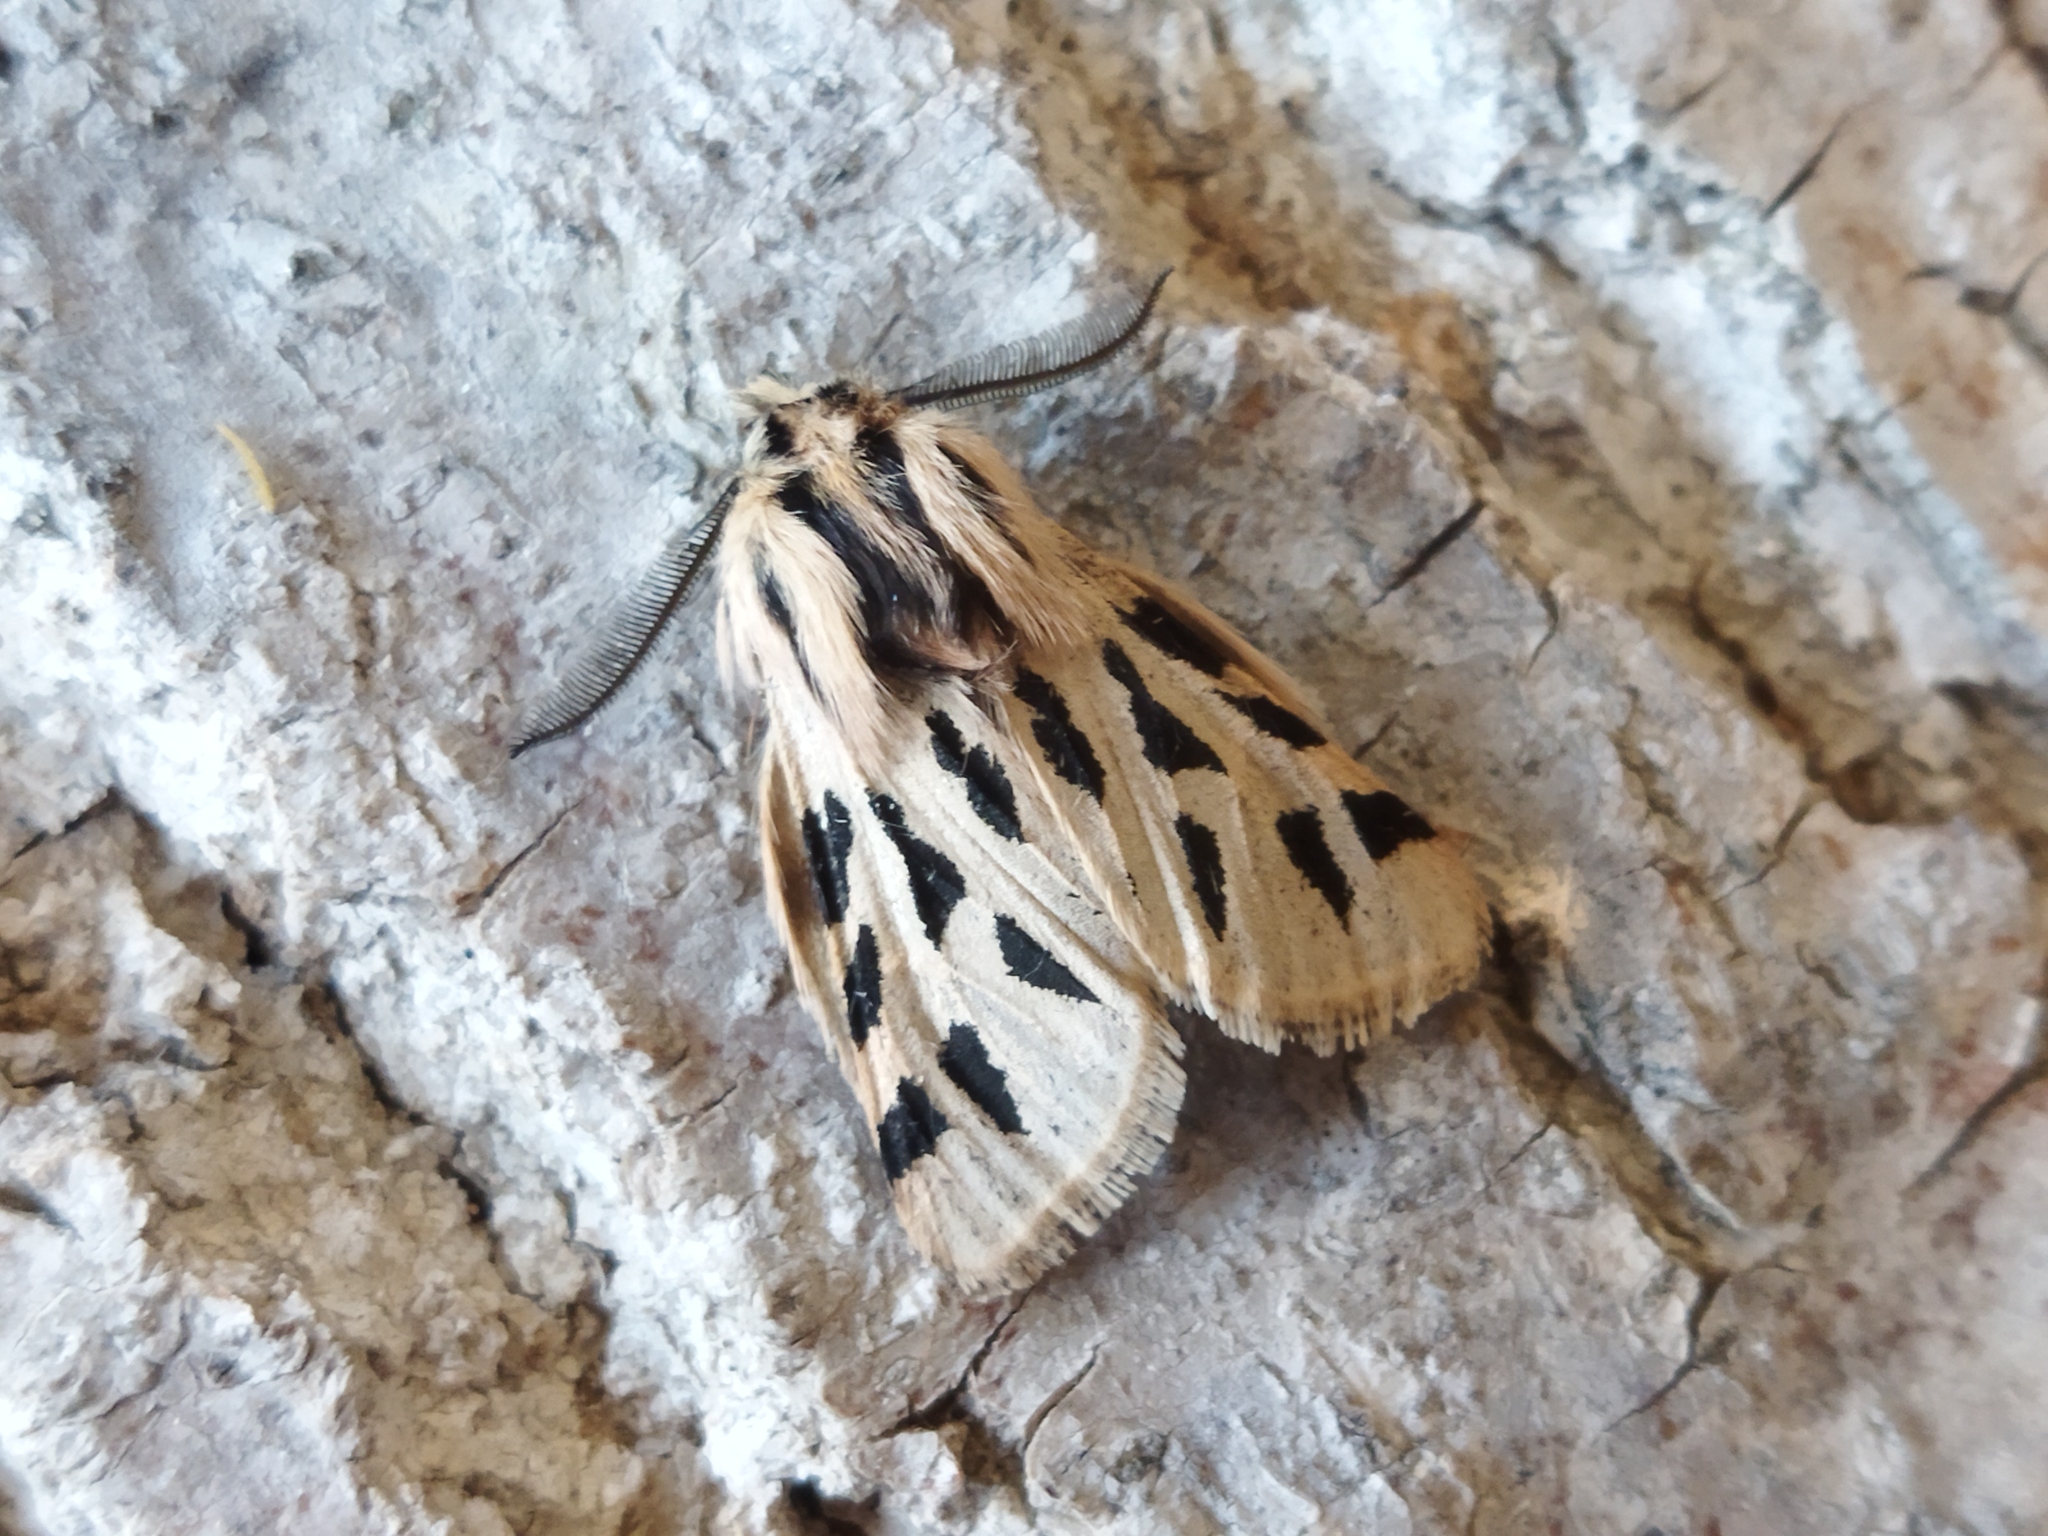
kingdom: Animalia
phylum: Arthropoda
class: Insecta
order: Lepidoptera
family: Erebidae
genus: Ocnogyna
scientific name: Ocnogyna parasita
